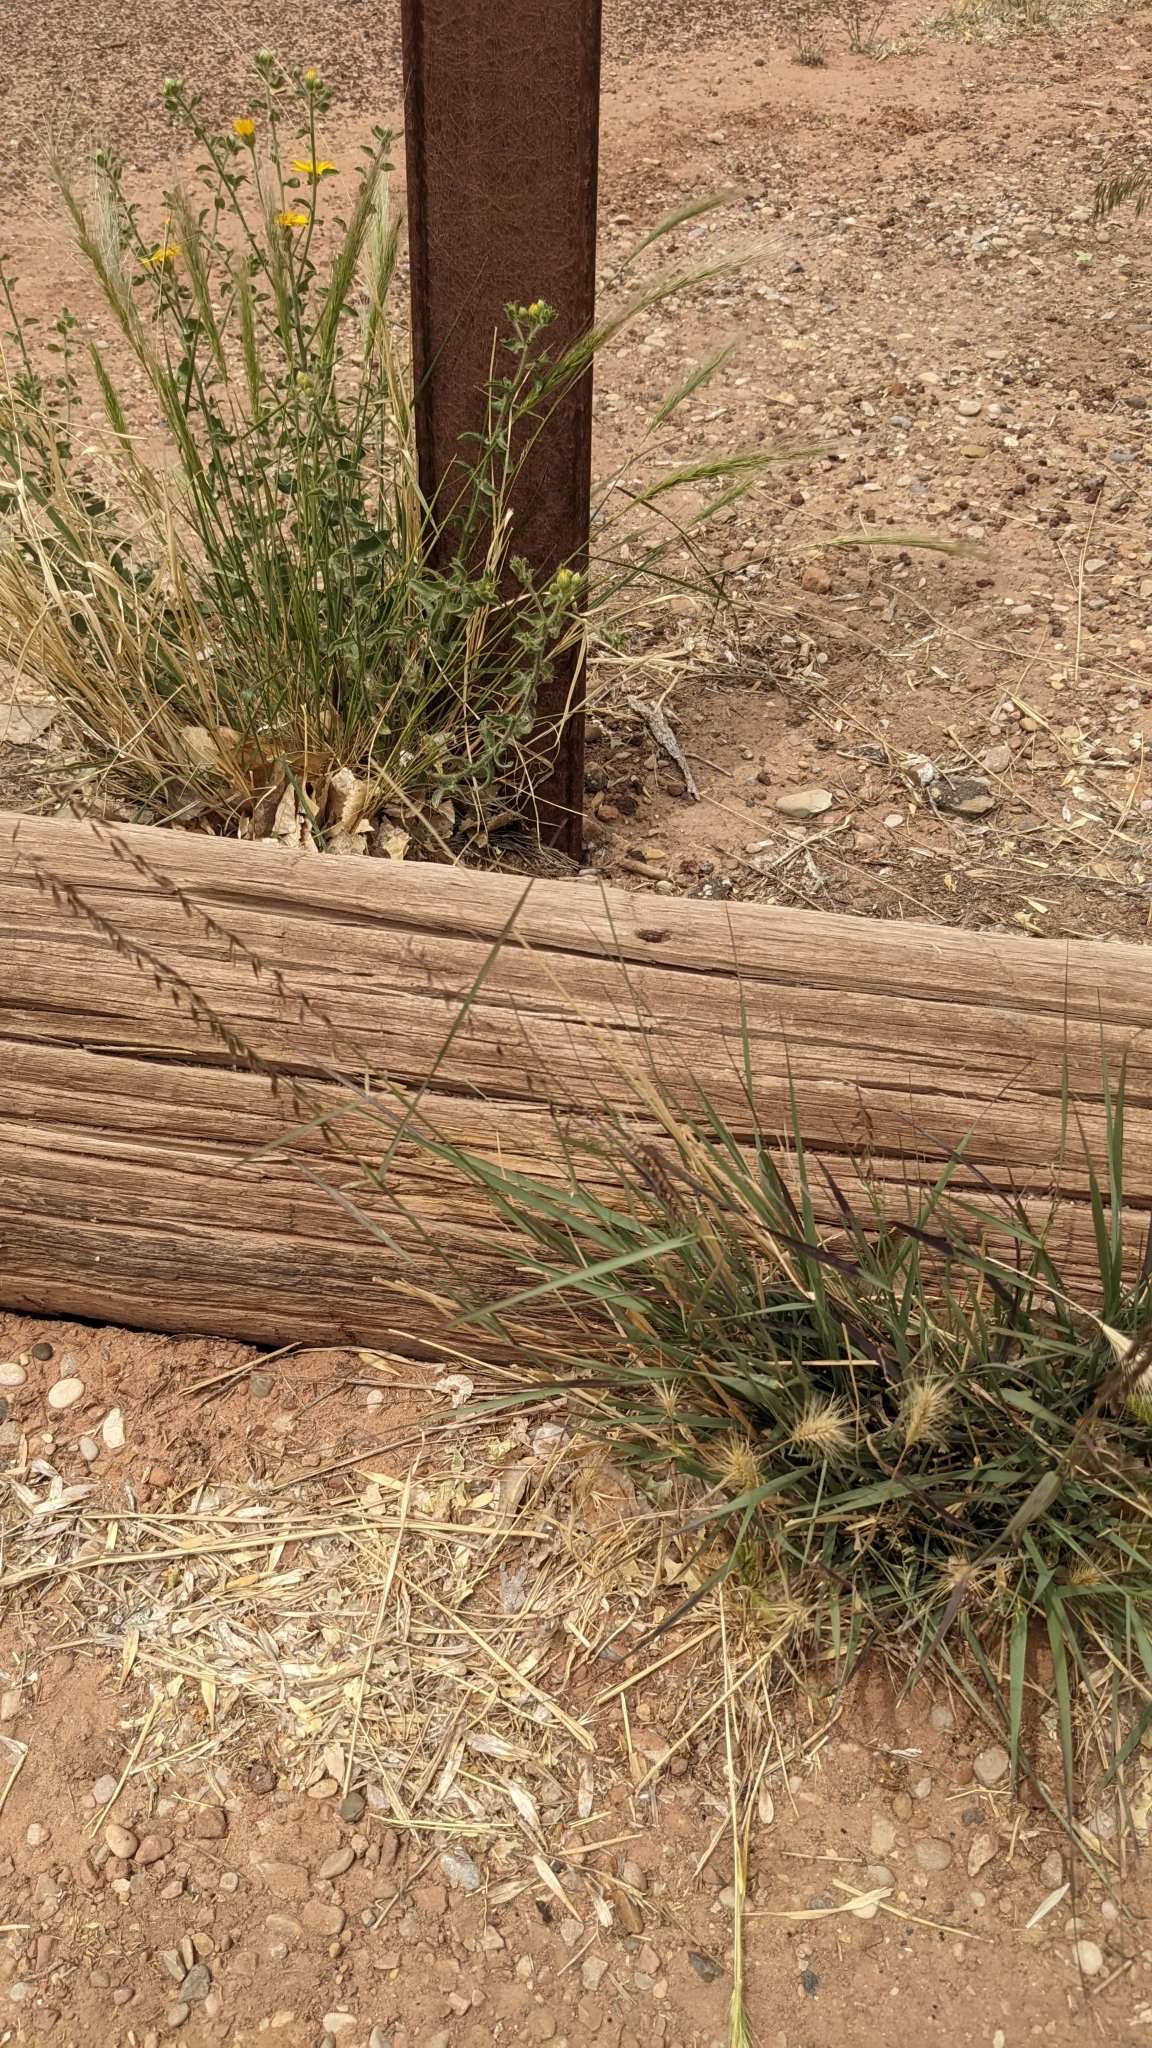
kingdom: Plantae
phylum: Tracheophyta
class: Liliopsida
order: Poales
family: Poaceae
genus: Bouteloua
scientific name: Bouteloua curtipendula
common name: Side-oats grama
